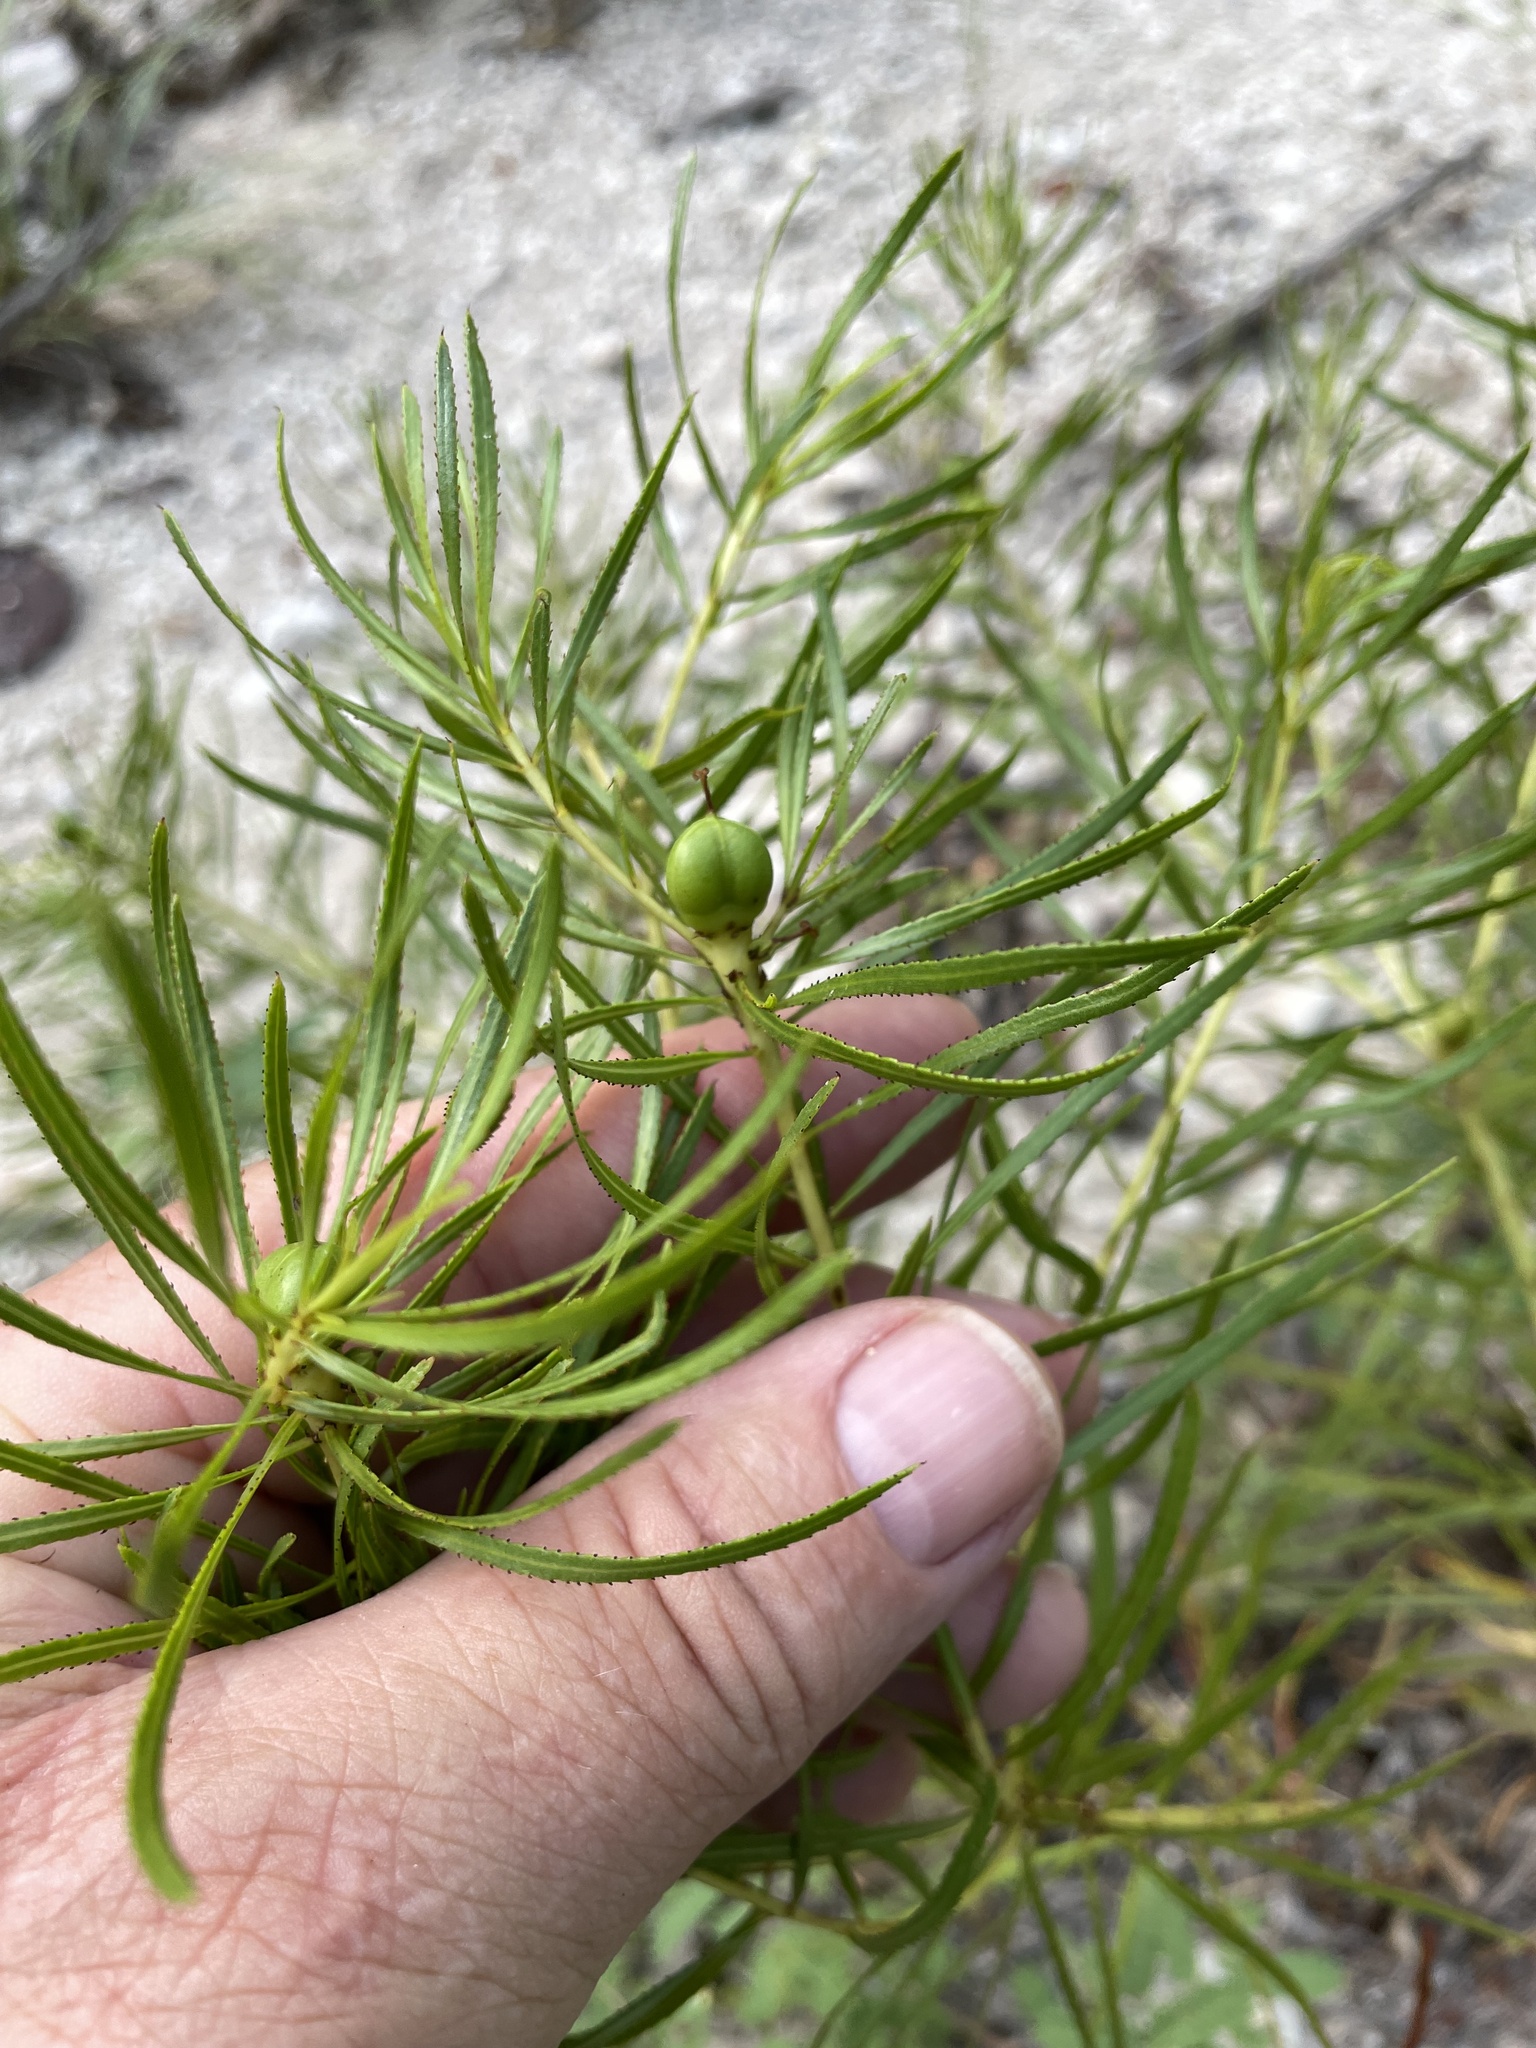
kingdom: Plantae
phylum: Tracheophyta
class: Magnoliopsida
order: Malpighiales
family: Euphorbiaceae
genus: Stillingia
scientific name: Stillingia texana
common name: Texas stillingia
